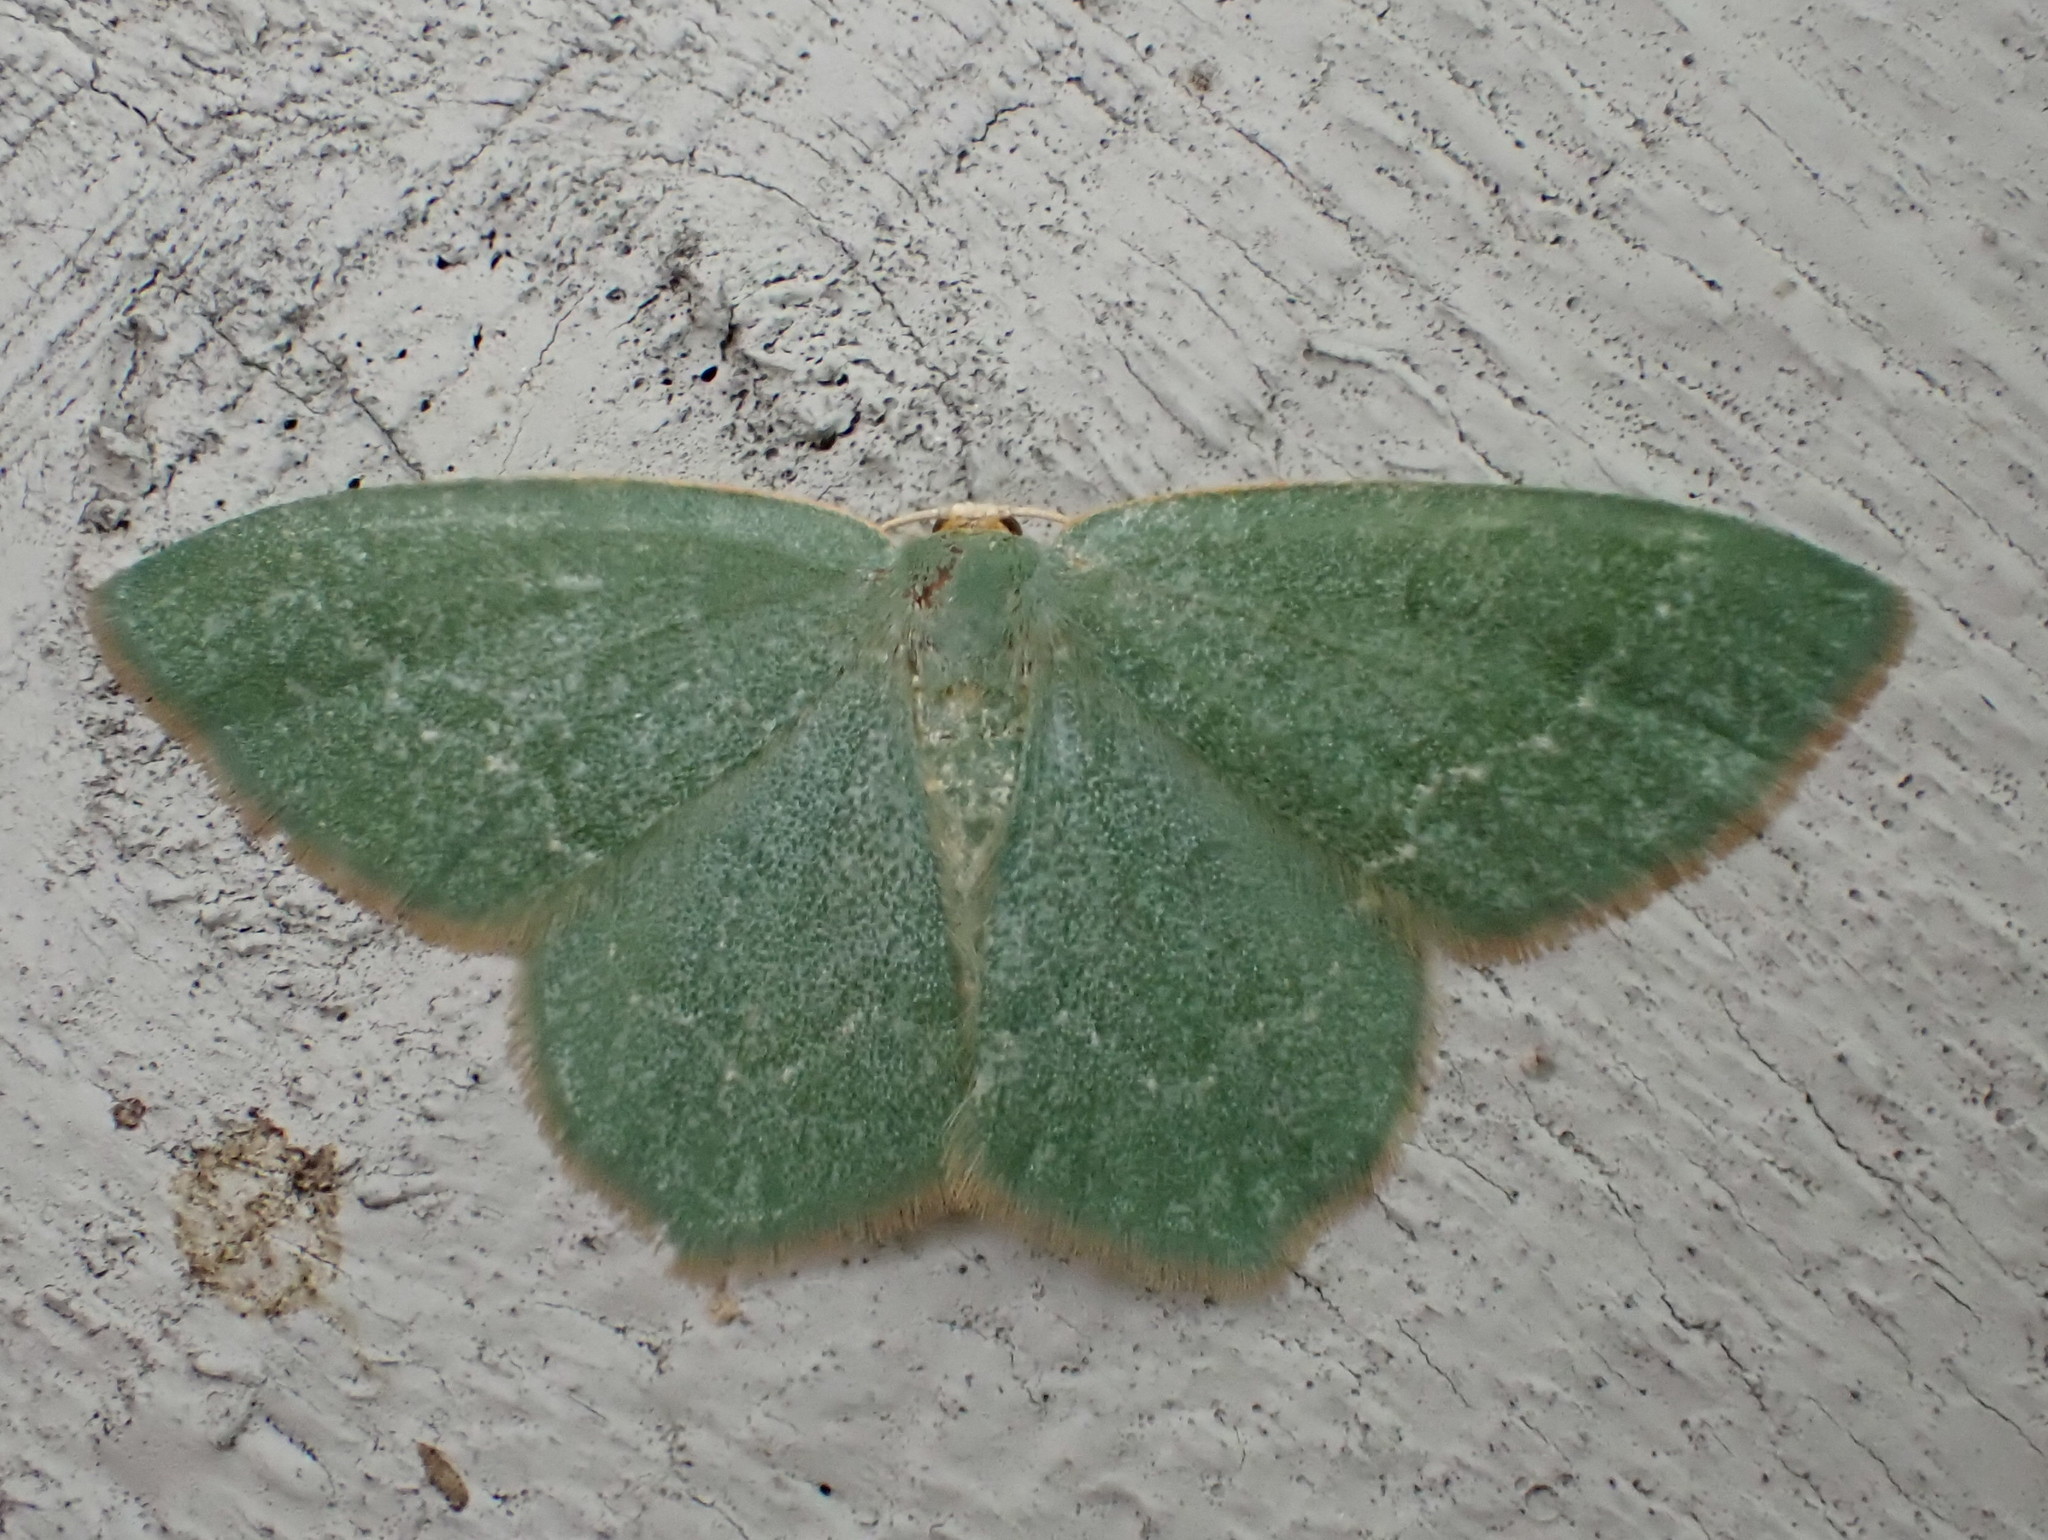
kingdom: Animalia
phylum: Arthropoda
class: Insecta
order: Lepidoptera
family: Geometridae
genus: Thalera
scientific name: Thalera pistasciaria
